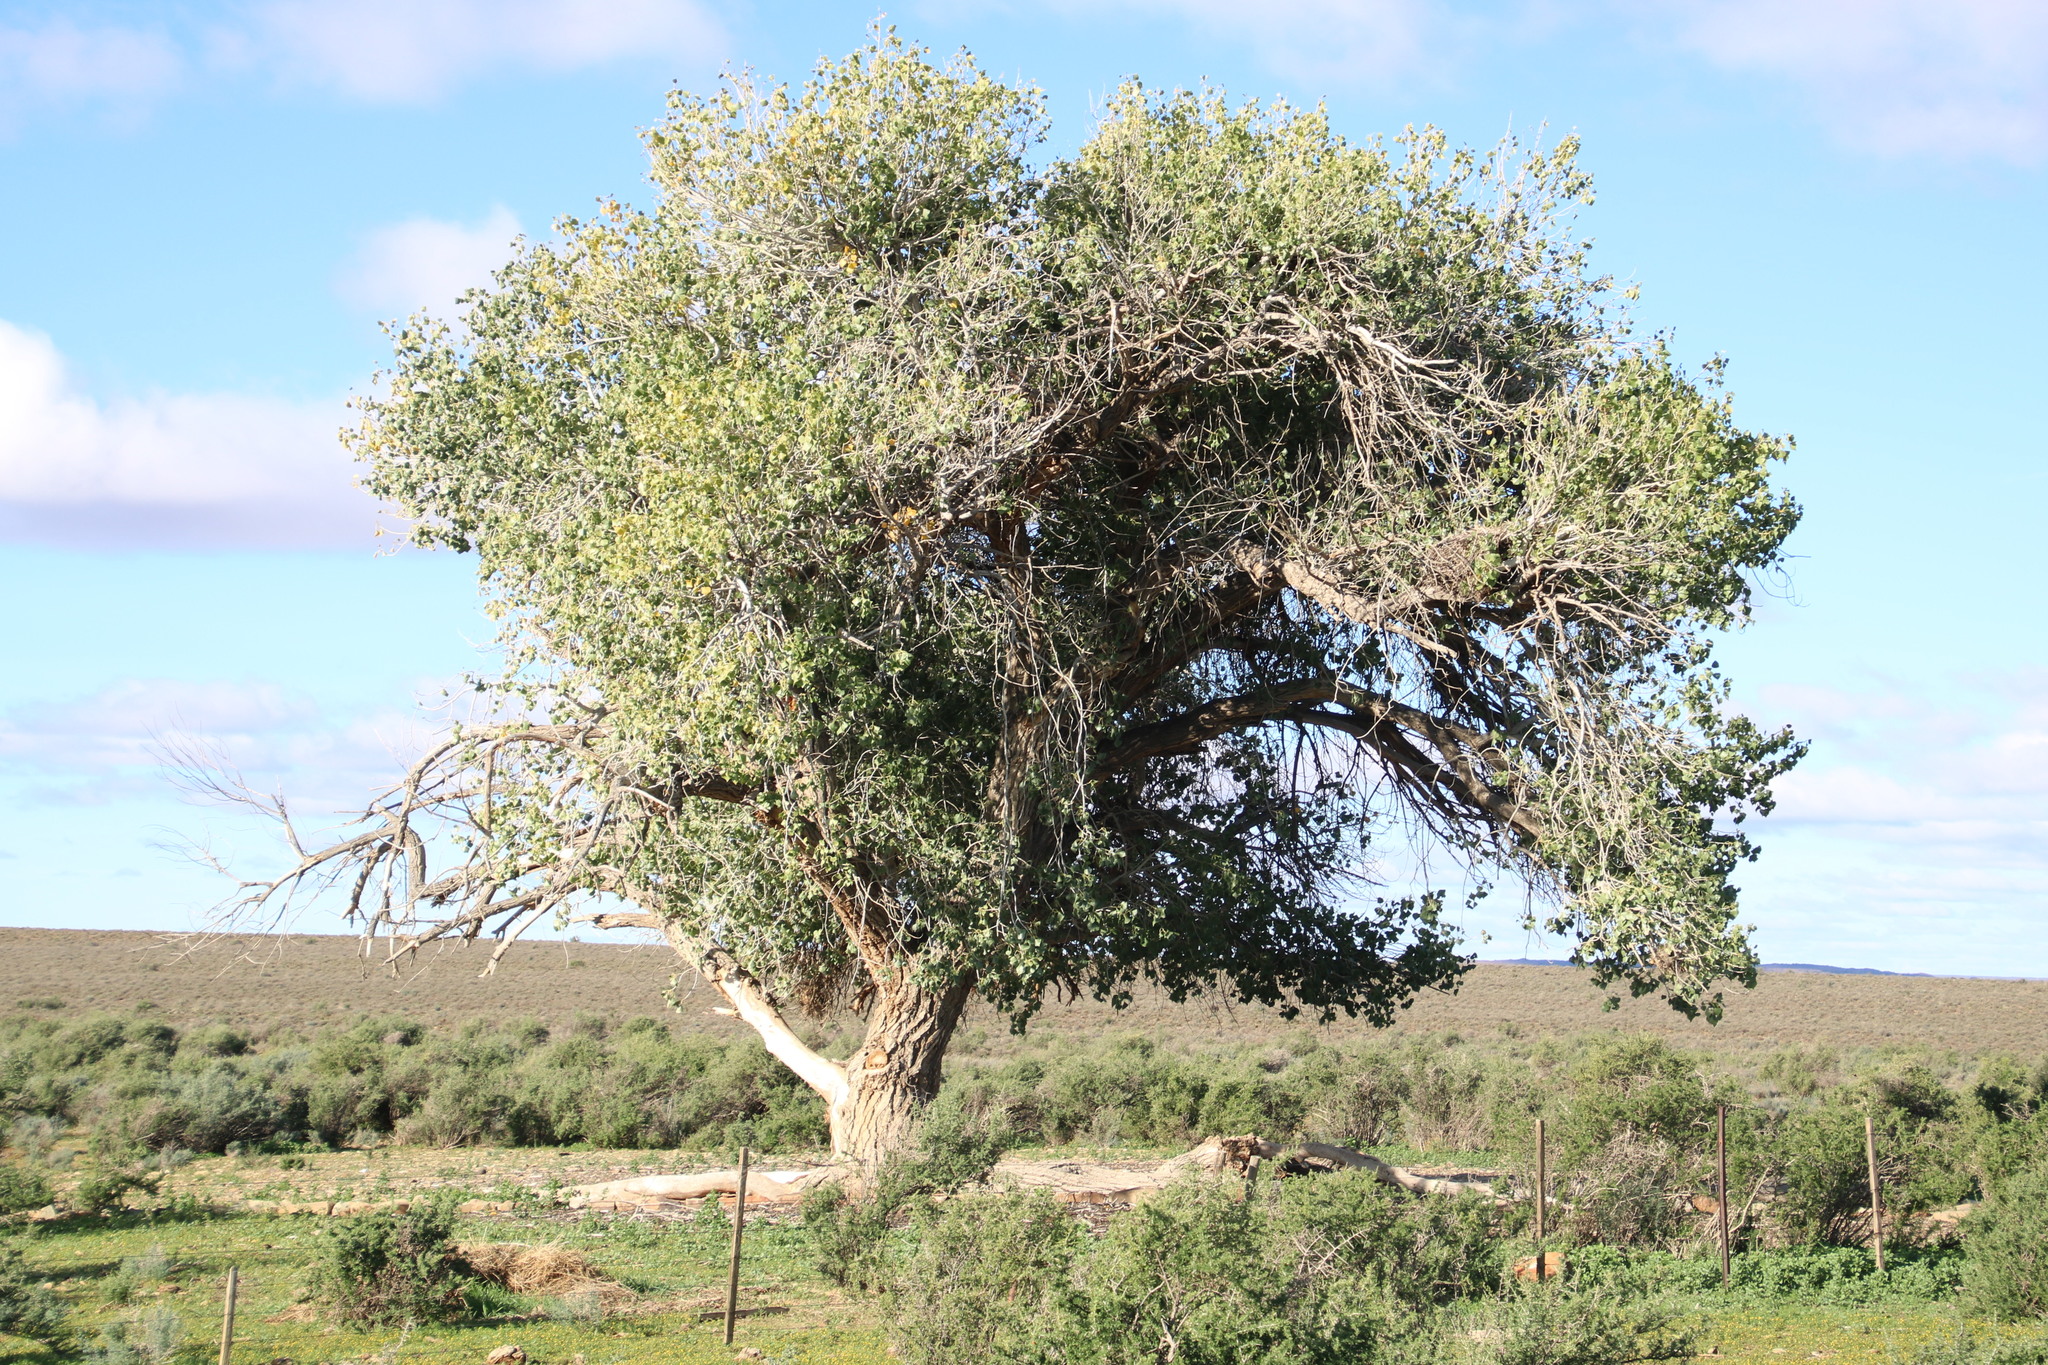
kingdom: Plantae
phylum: Tracheophyta
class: Magnoliopsida
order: Malpighiales
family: Salicaceae
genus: Populus
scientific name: Populus deltoides
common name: Eastern cottonwood
